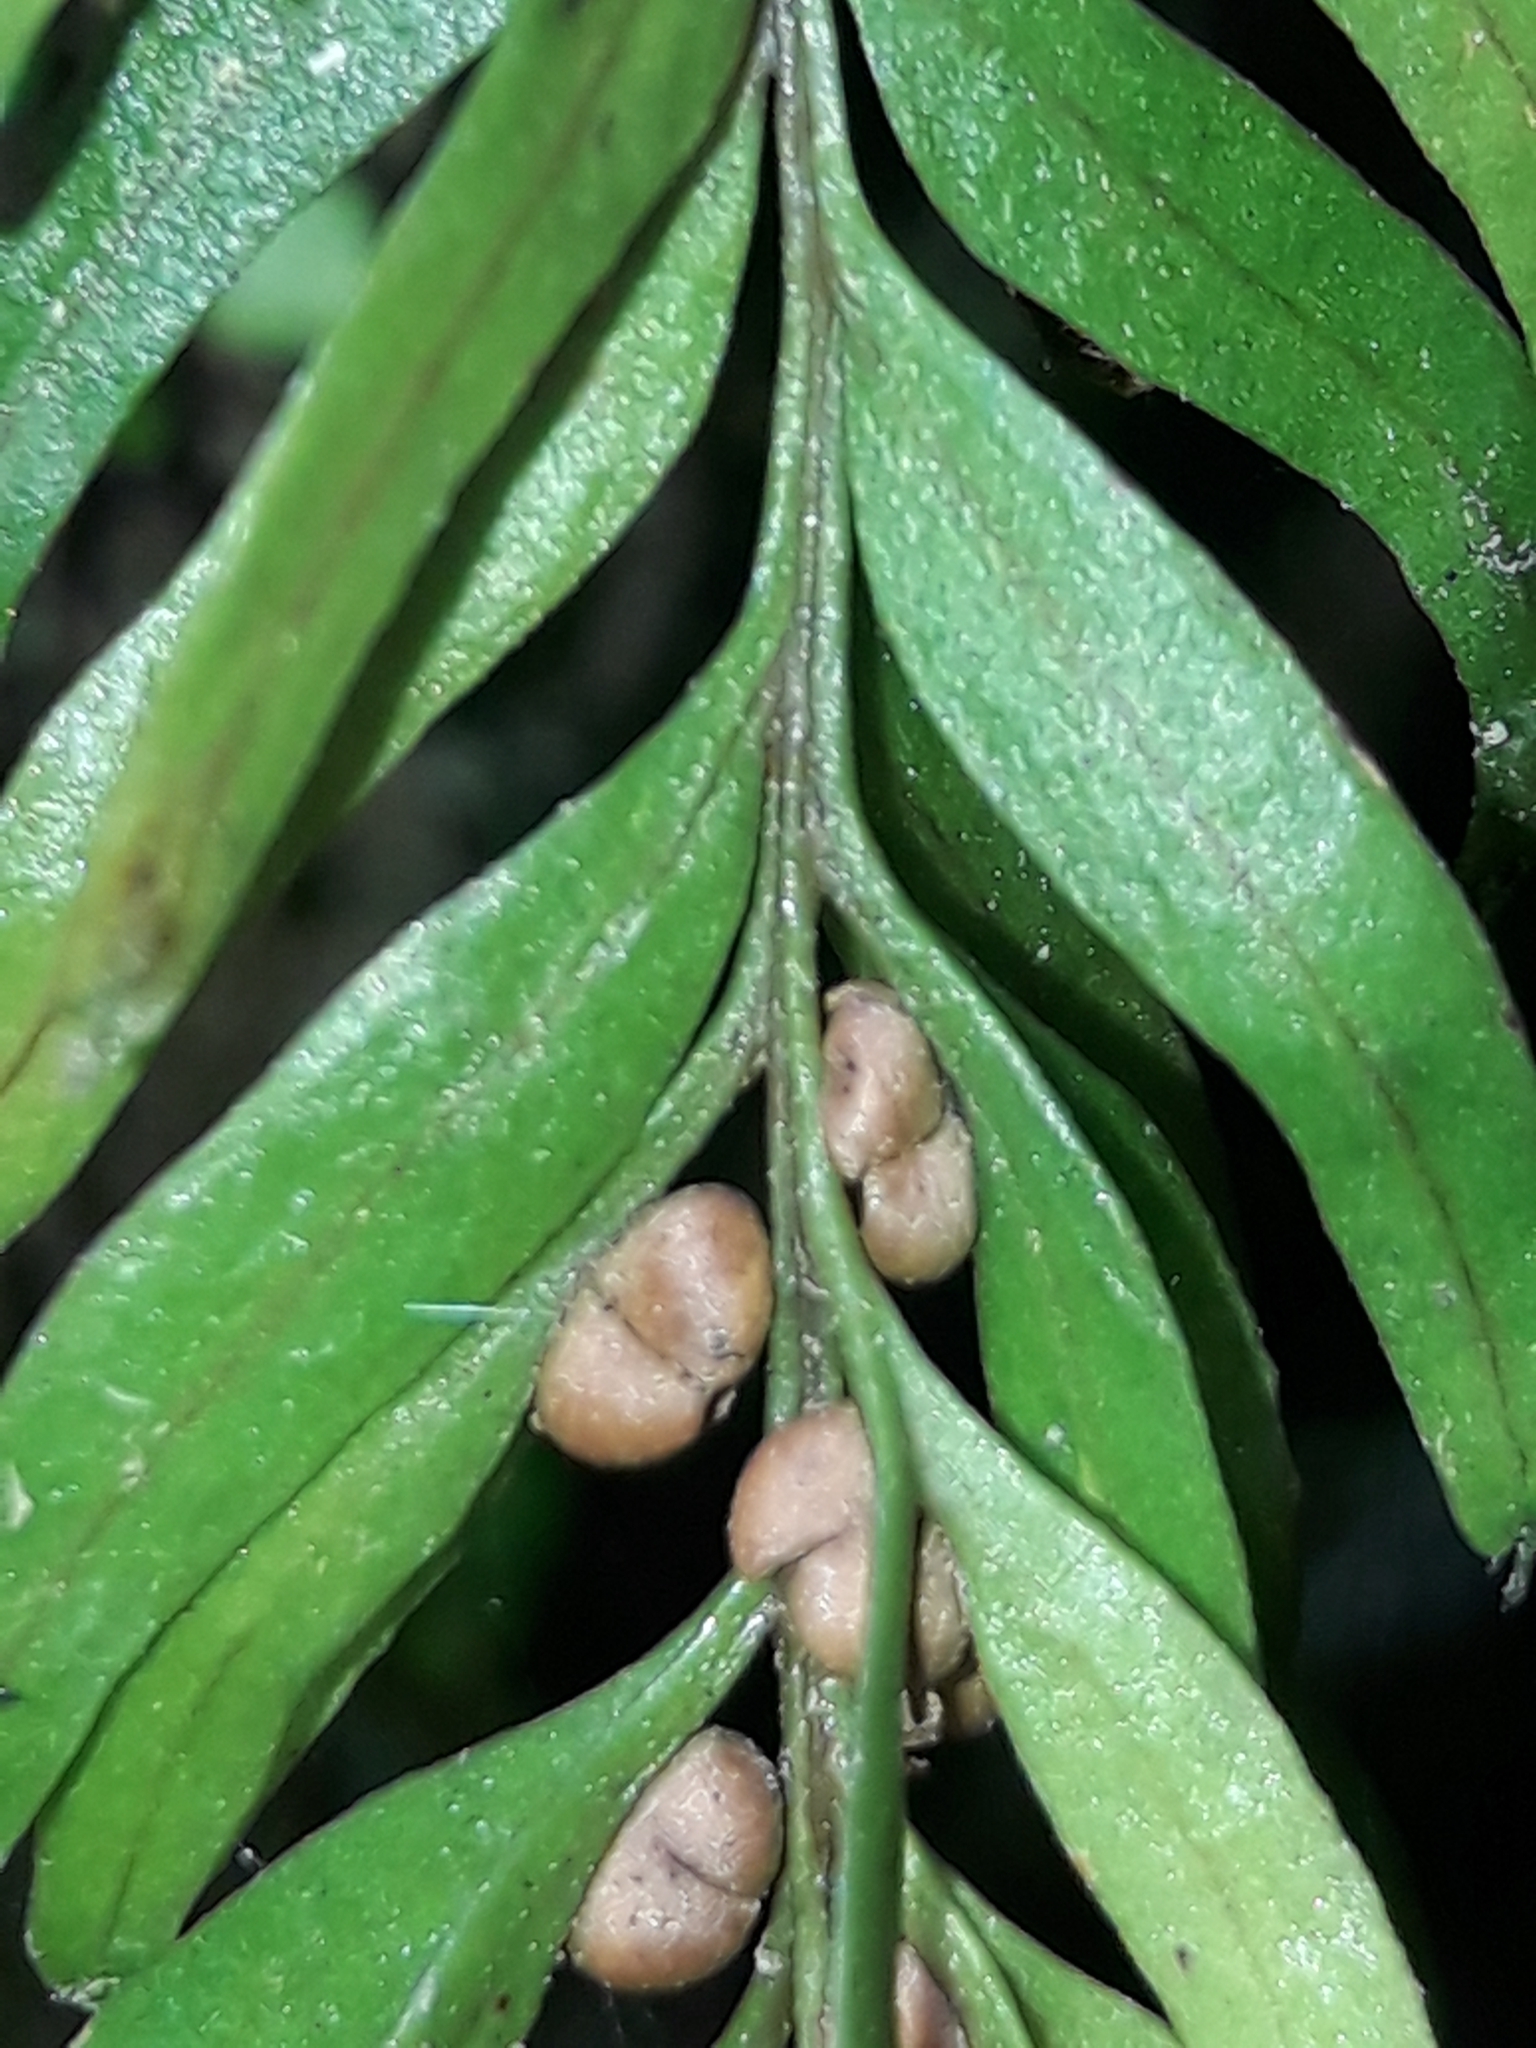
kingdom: Plantae
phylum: Tracheophyta
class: Polypodiopsida
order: Psilotales
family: Psilotaceae
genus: Tmesipteris
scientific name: Tmesipteris sigmatifolia
